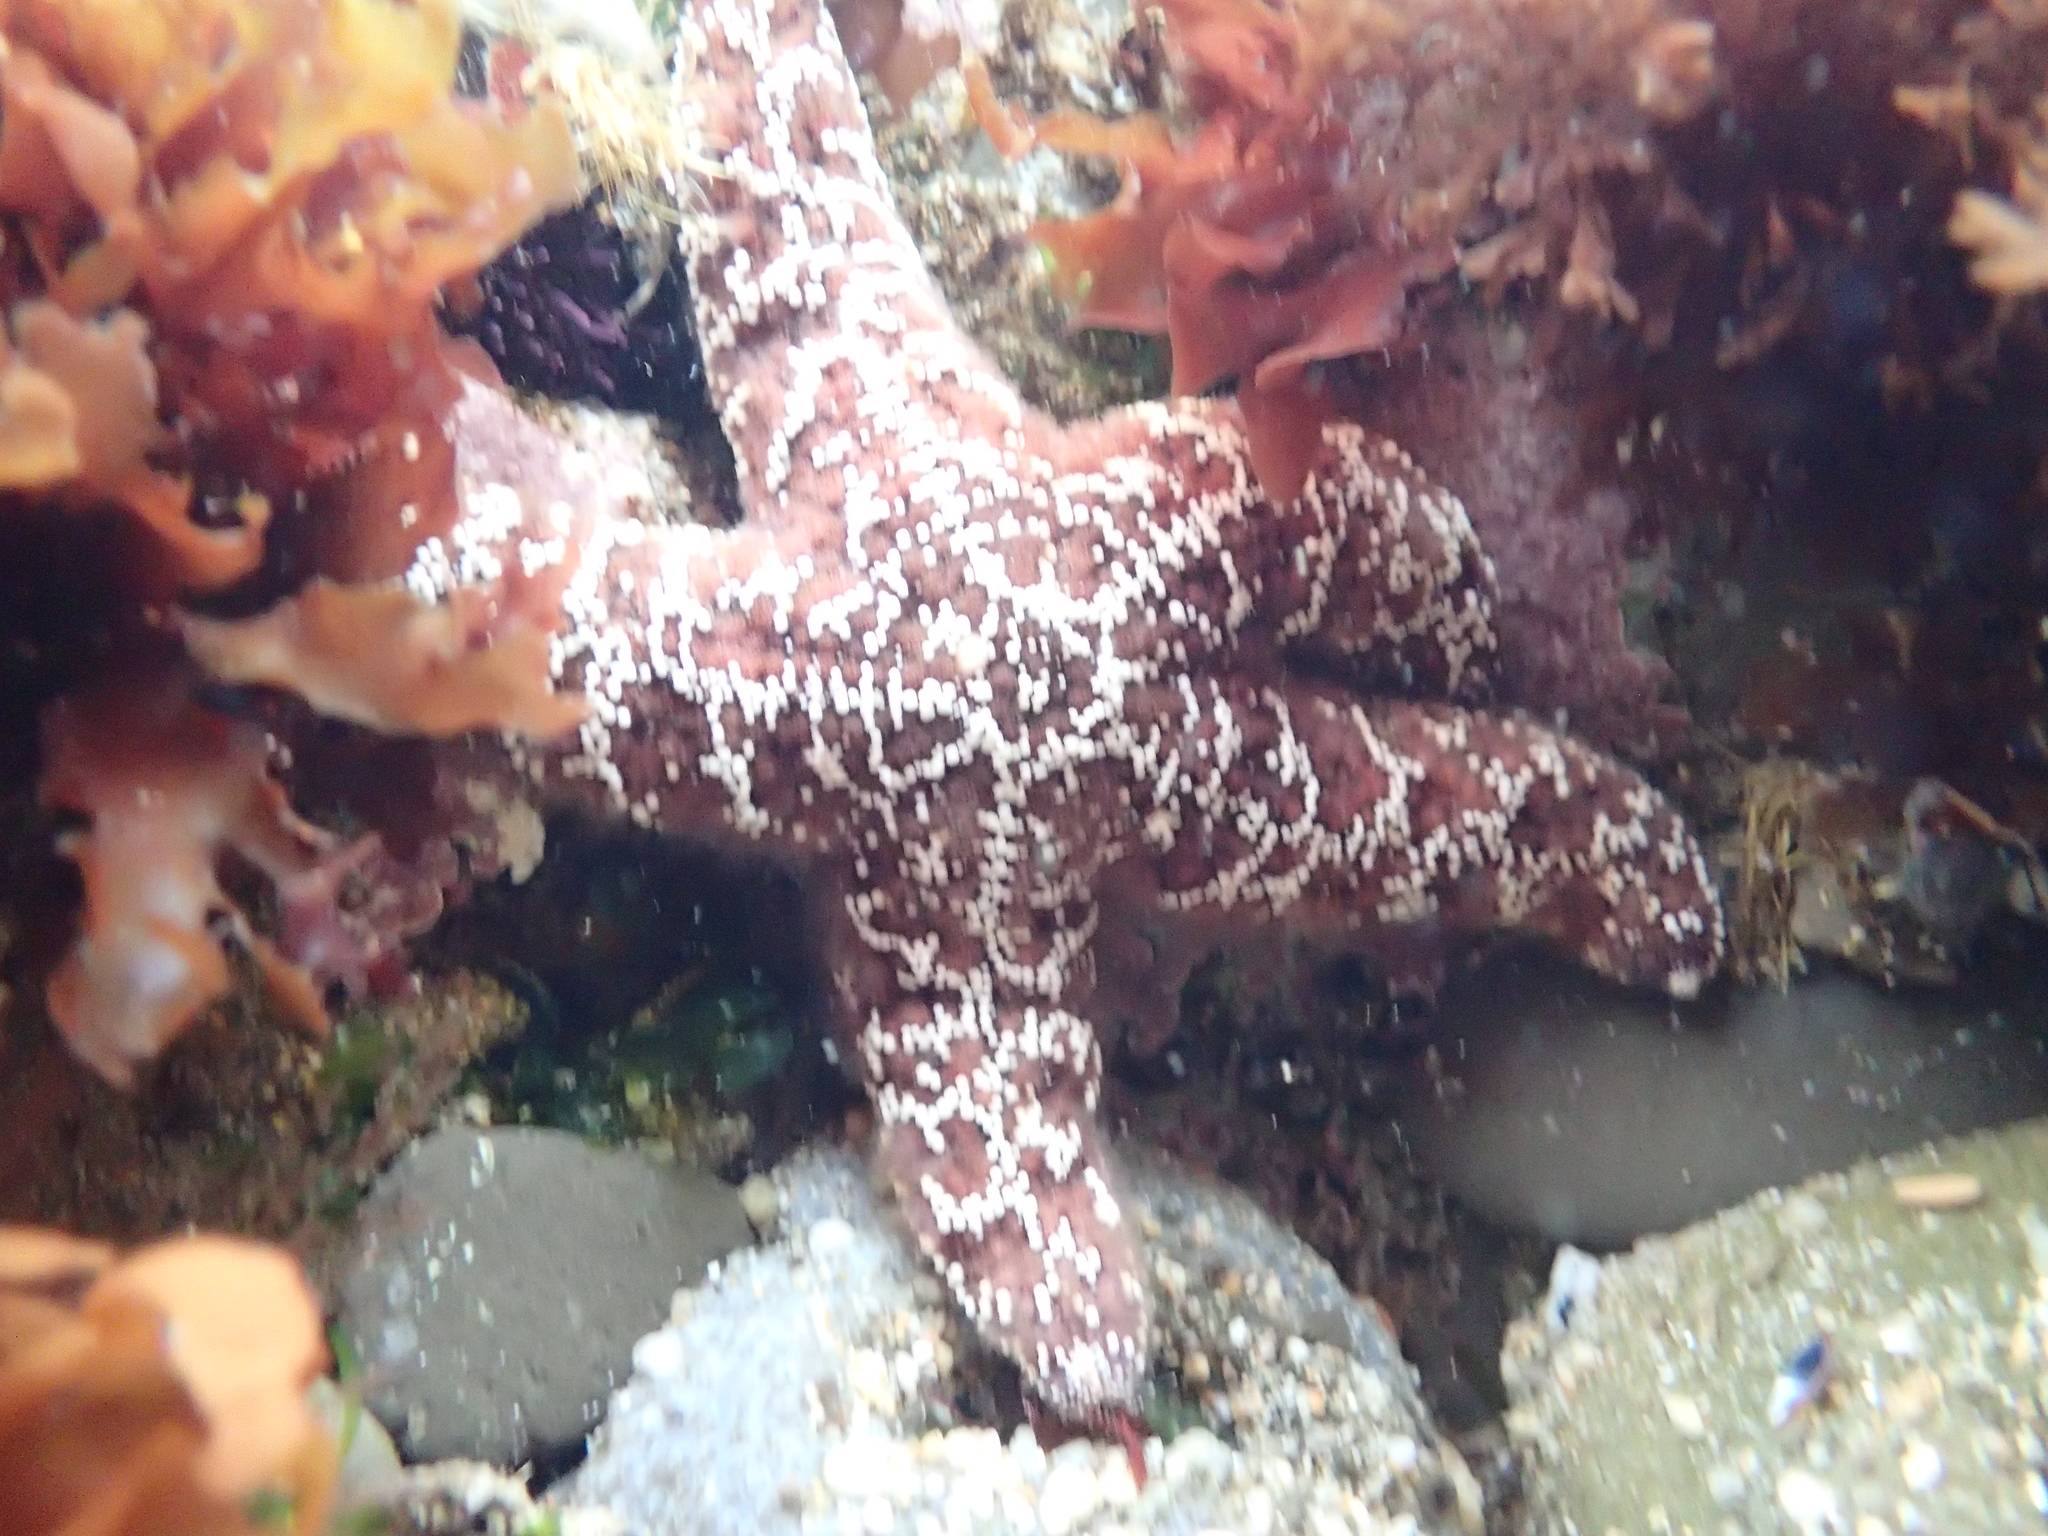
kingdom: Animalia
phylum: Echinodermata
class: Asteroidea
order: Forcipulatida
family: Asteriidae
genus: Pisaster
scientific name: Pisaster ochraceus
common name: Ochre stars
